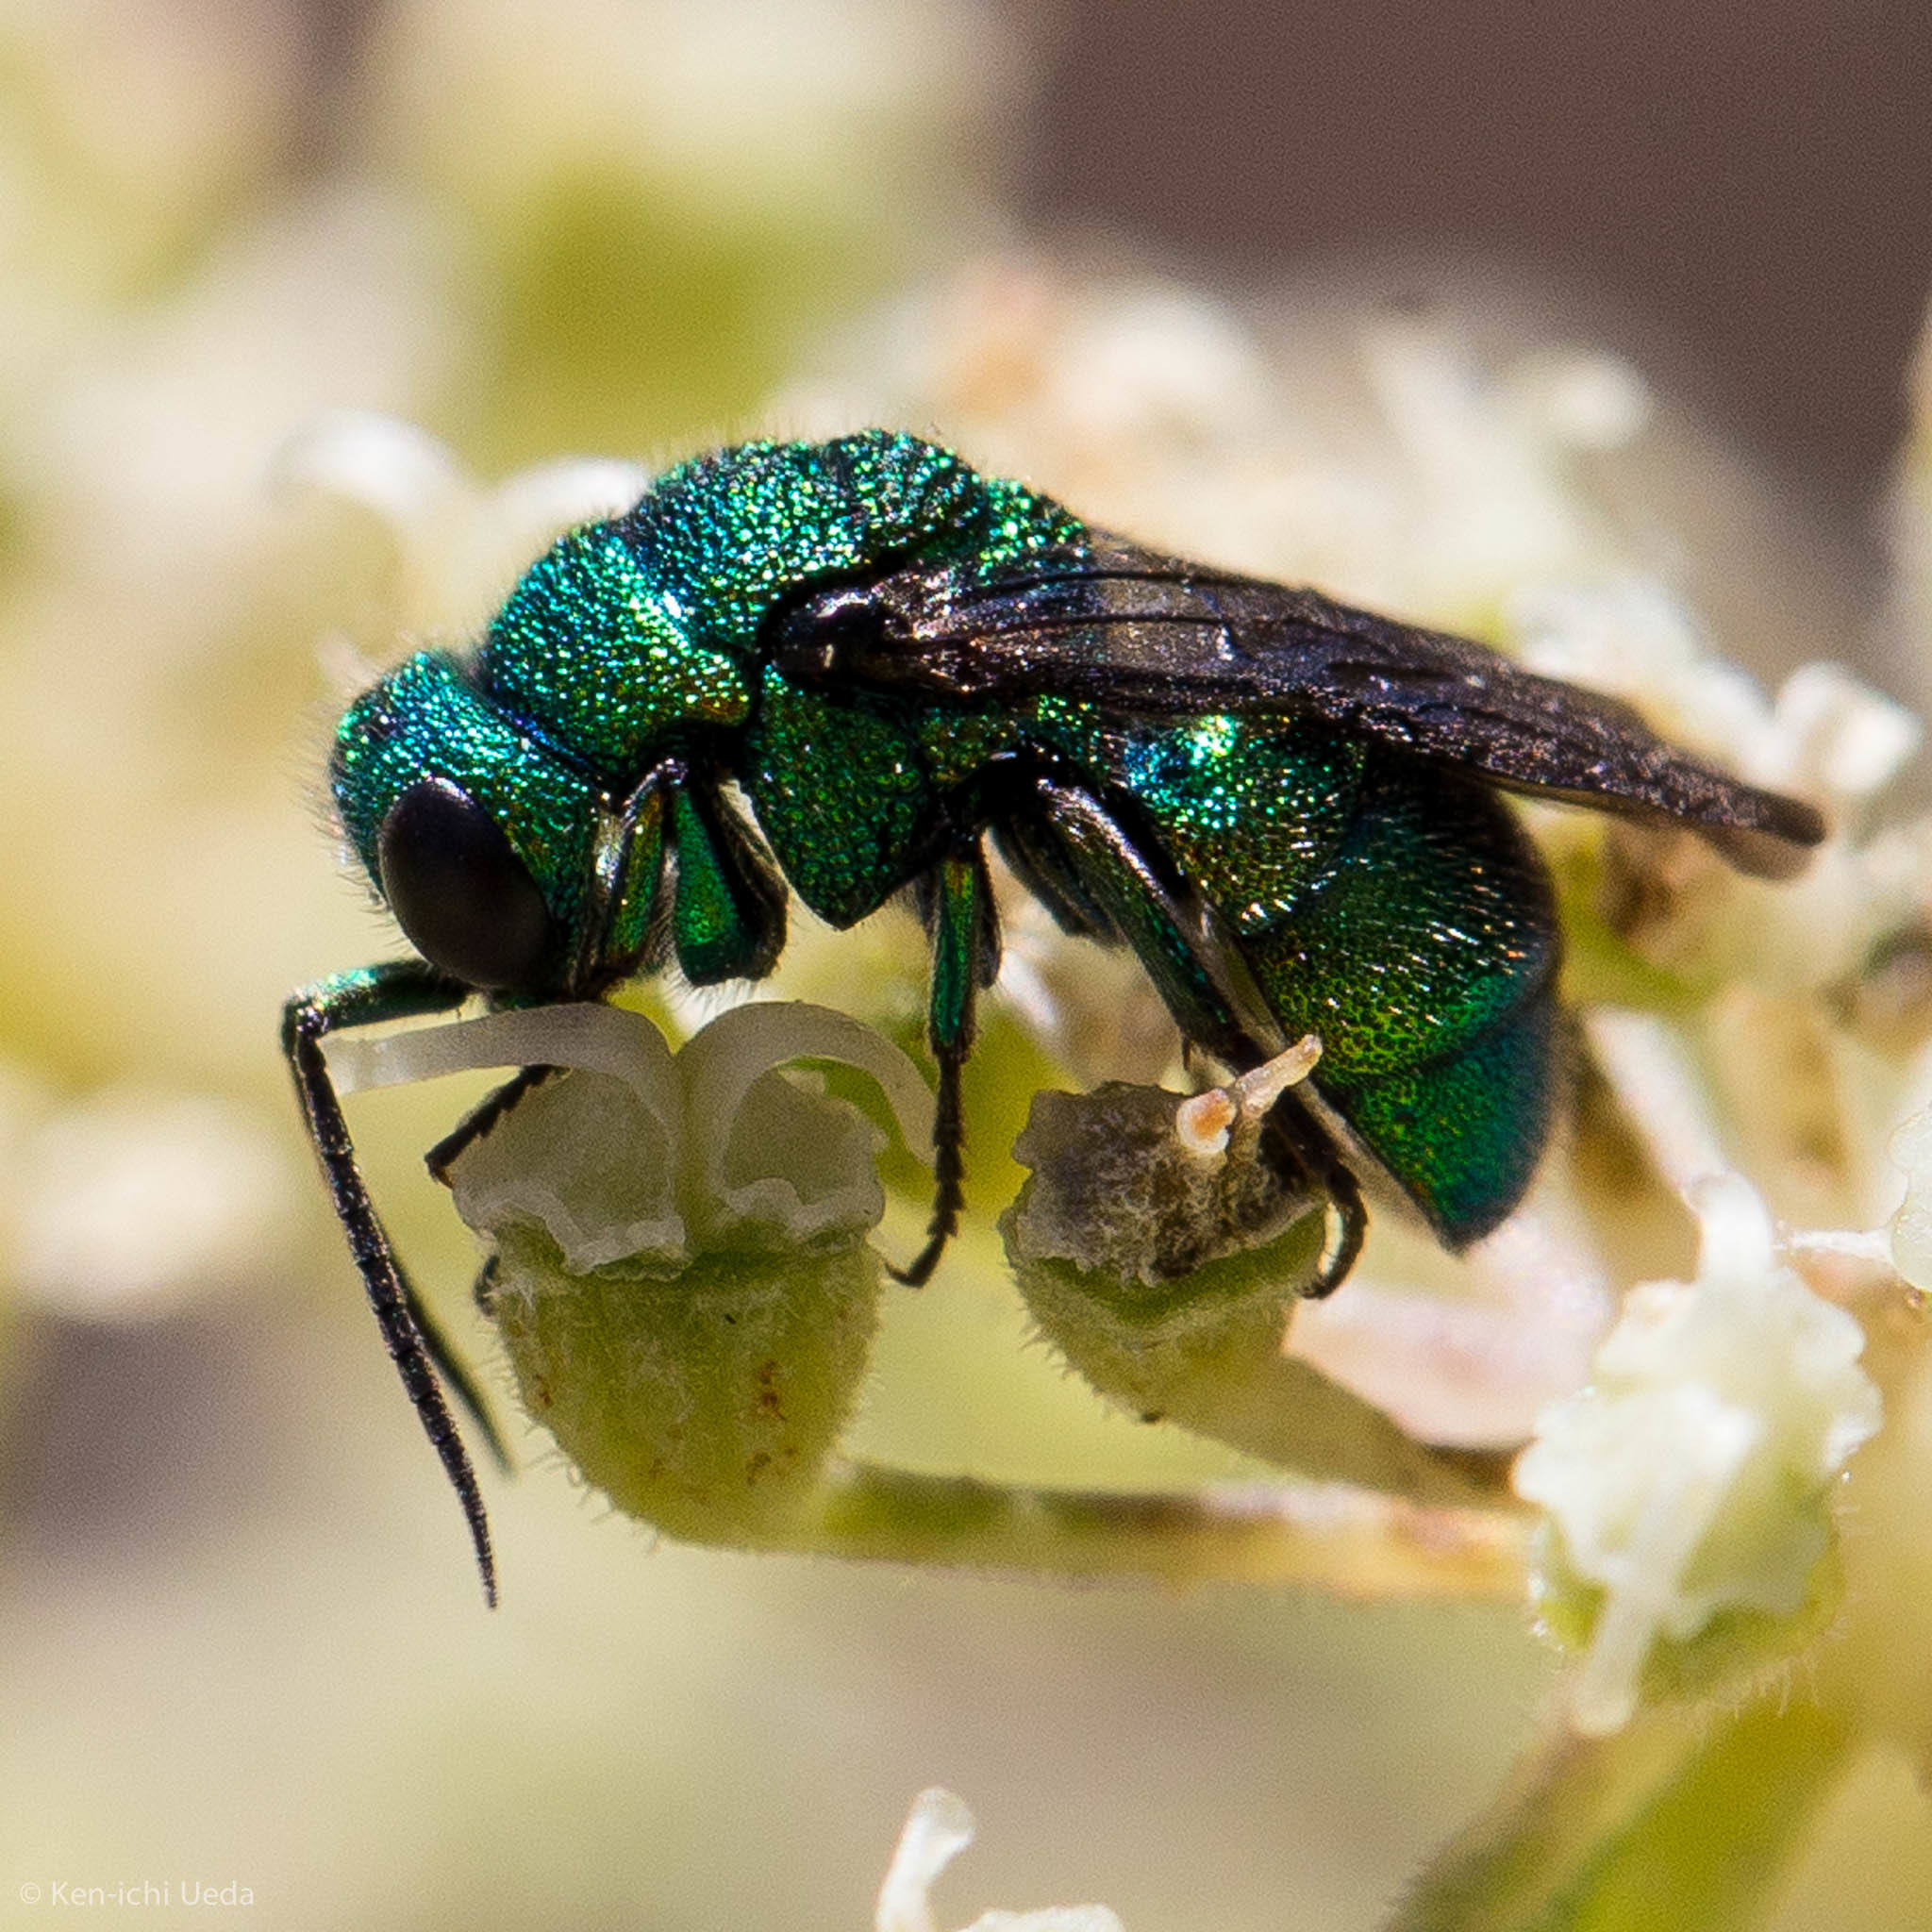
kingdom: Animalia
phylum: Arthropoda
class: Insecta
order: Hymenoptera
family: Chrysididae
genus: Holopyga
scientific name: Holopyga
